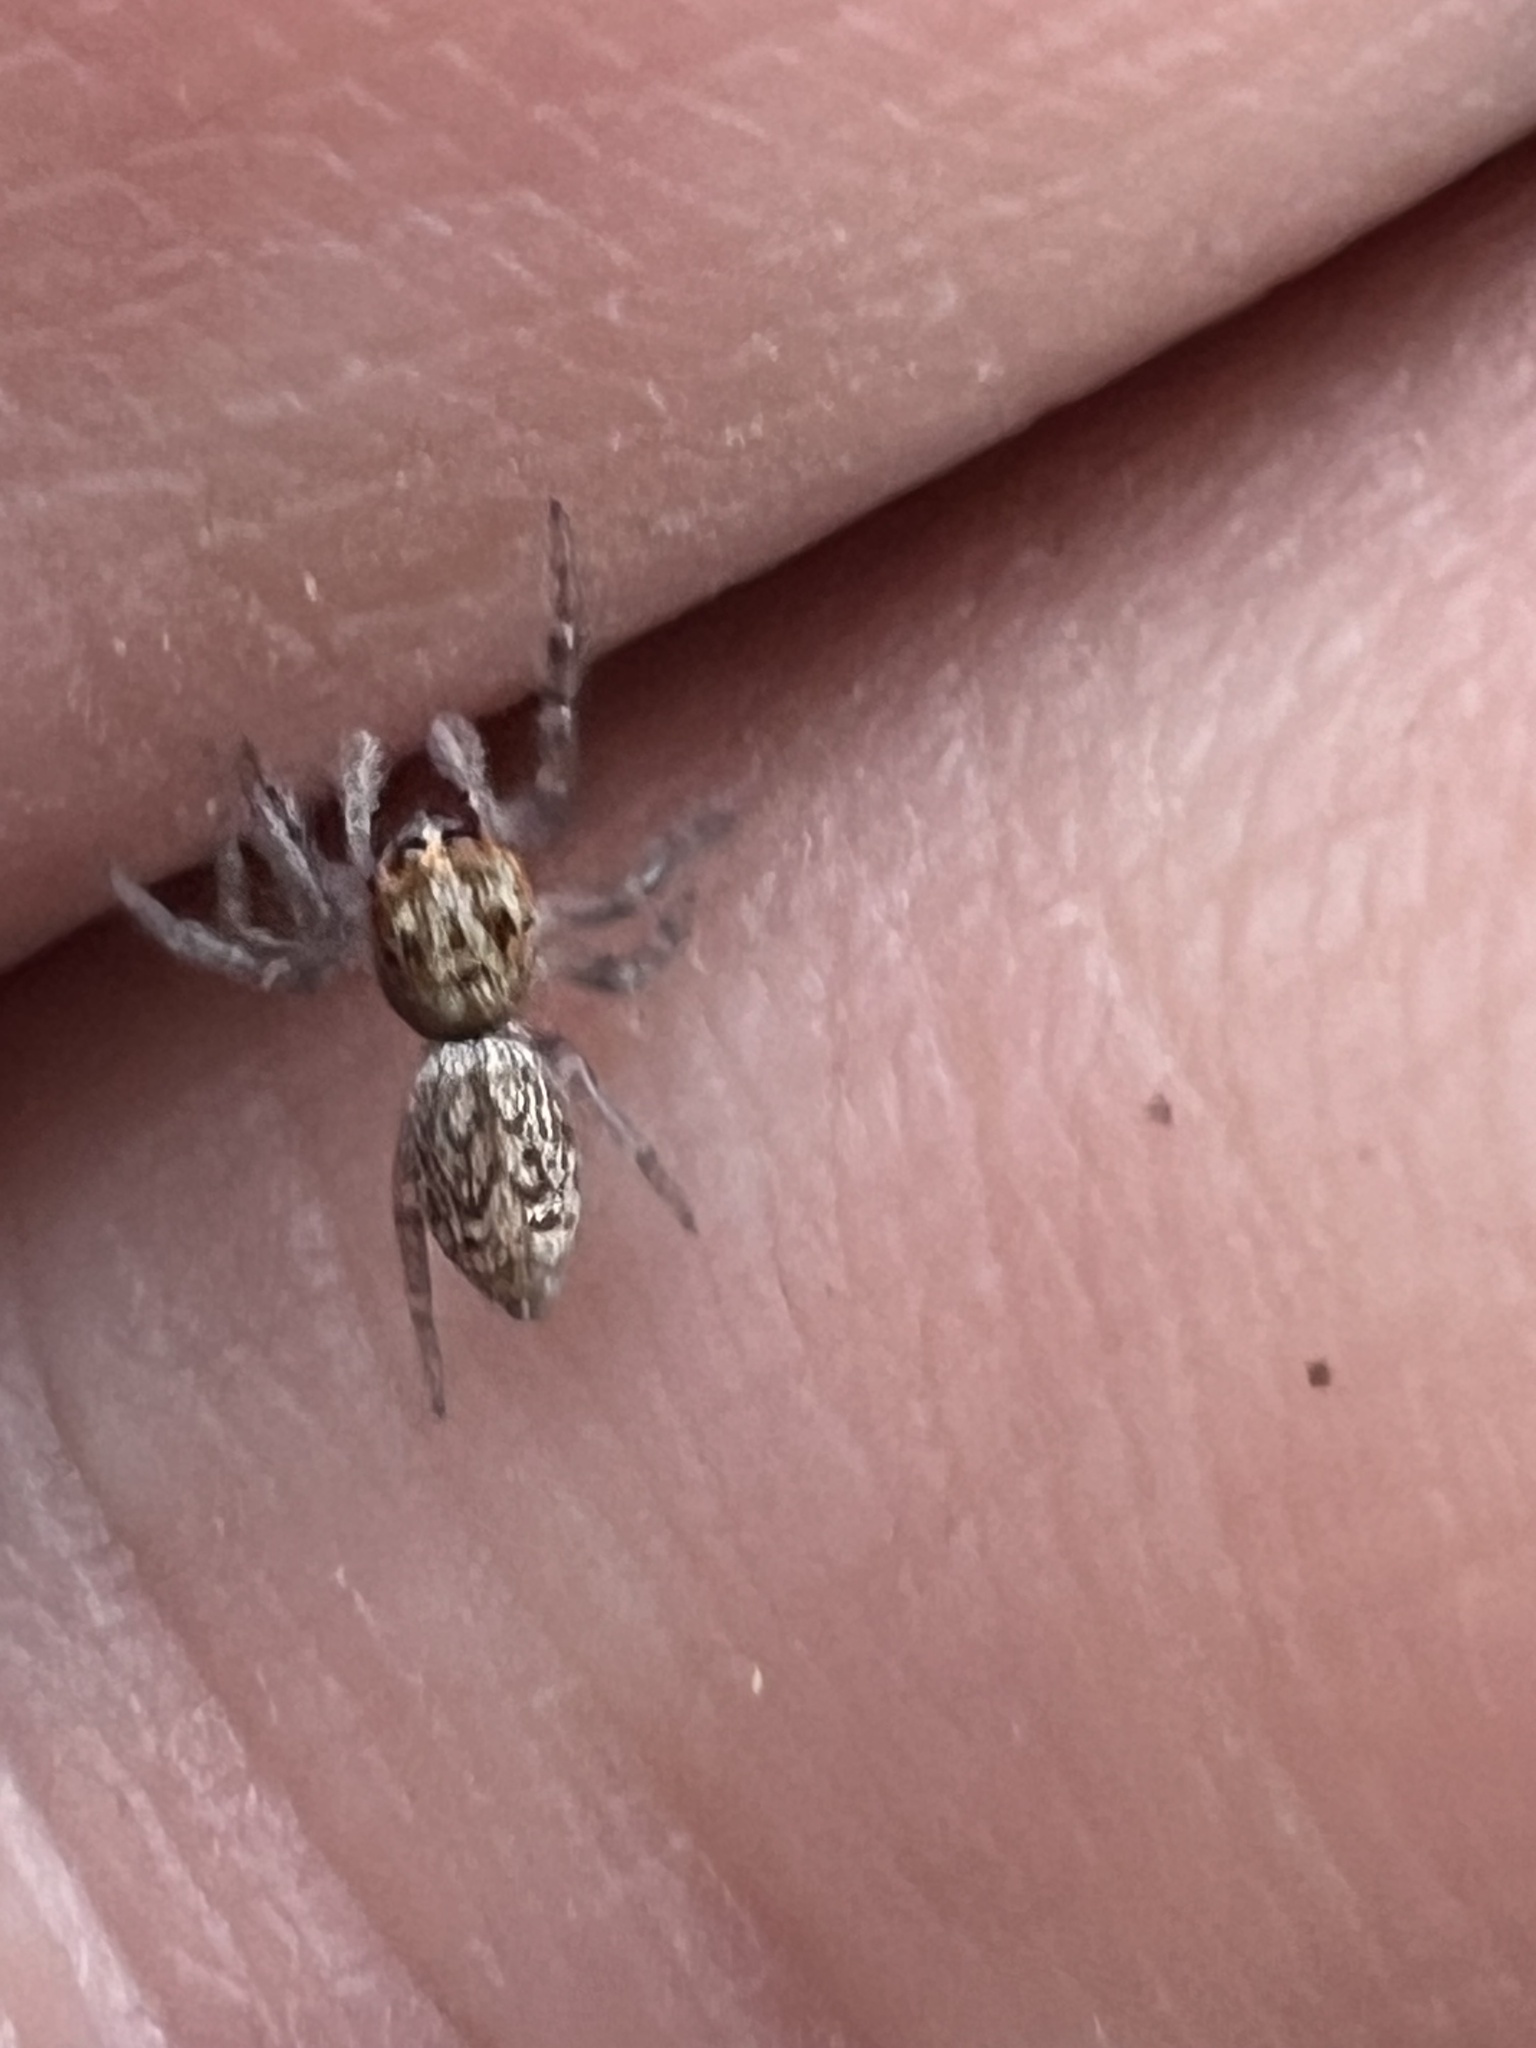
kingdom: Animalia
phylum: Arthropoda
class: Arachnida
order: Araneae
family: Salticidae
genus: Opisthoncus
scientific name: Opisthoncus polyphemus
